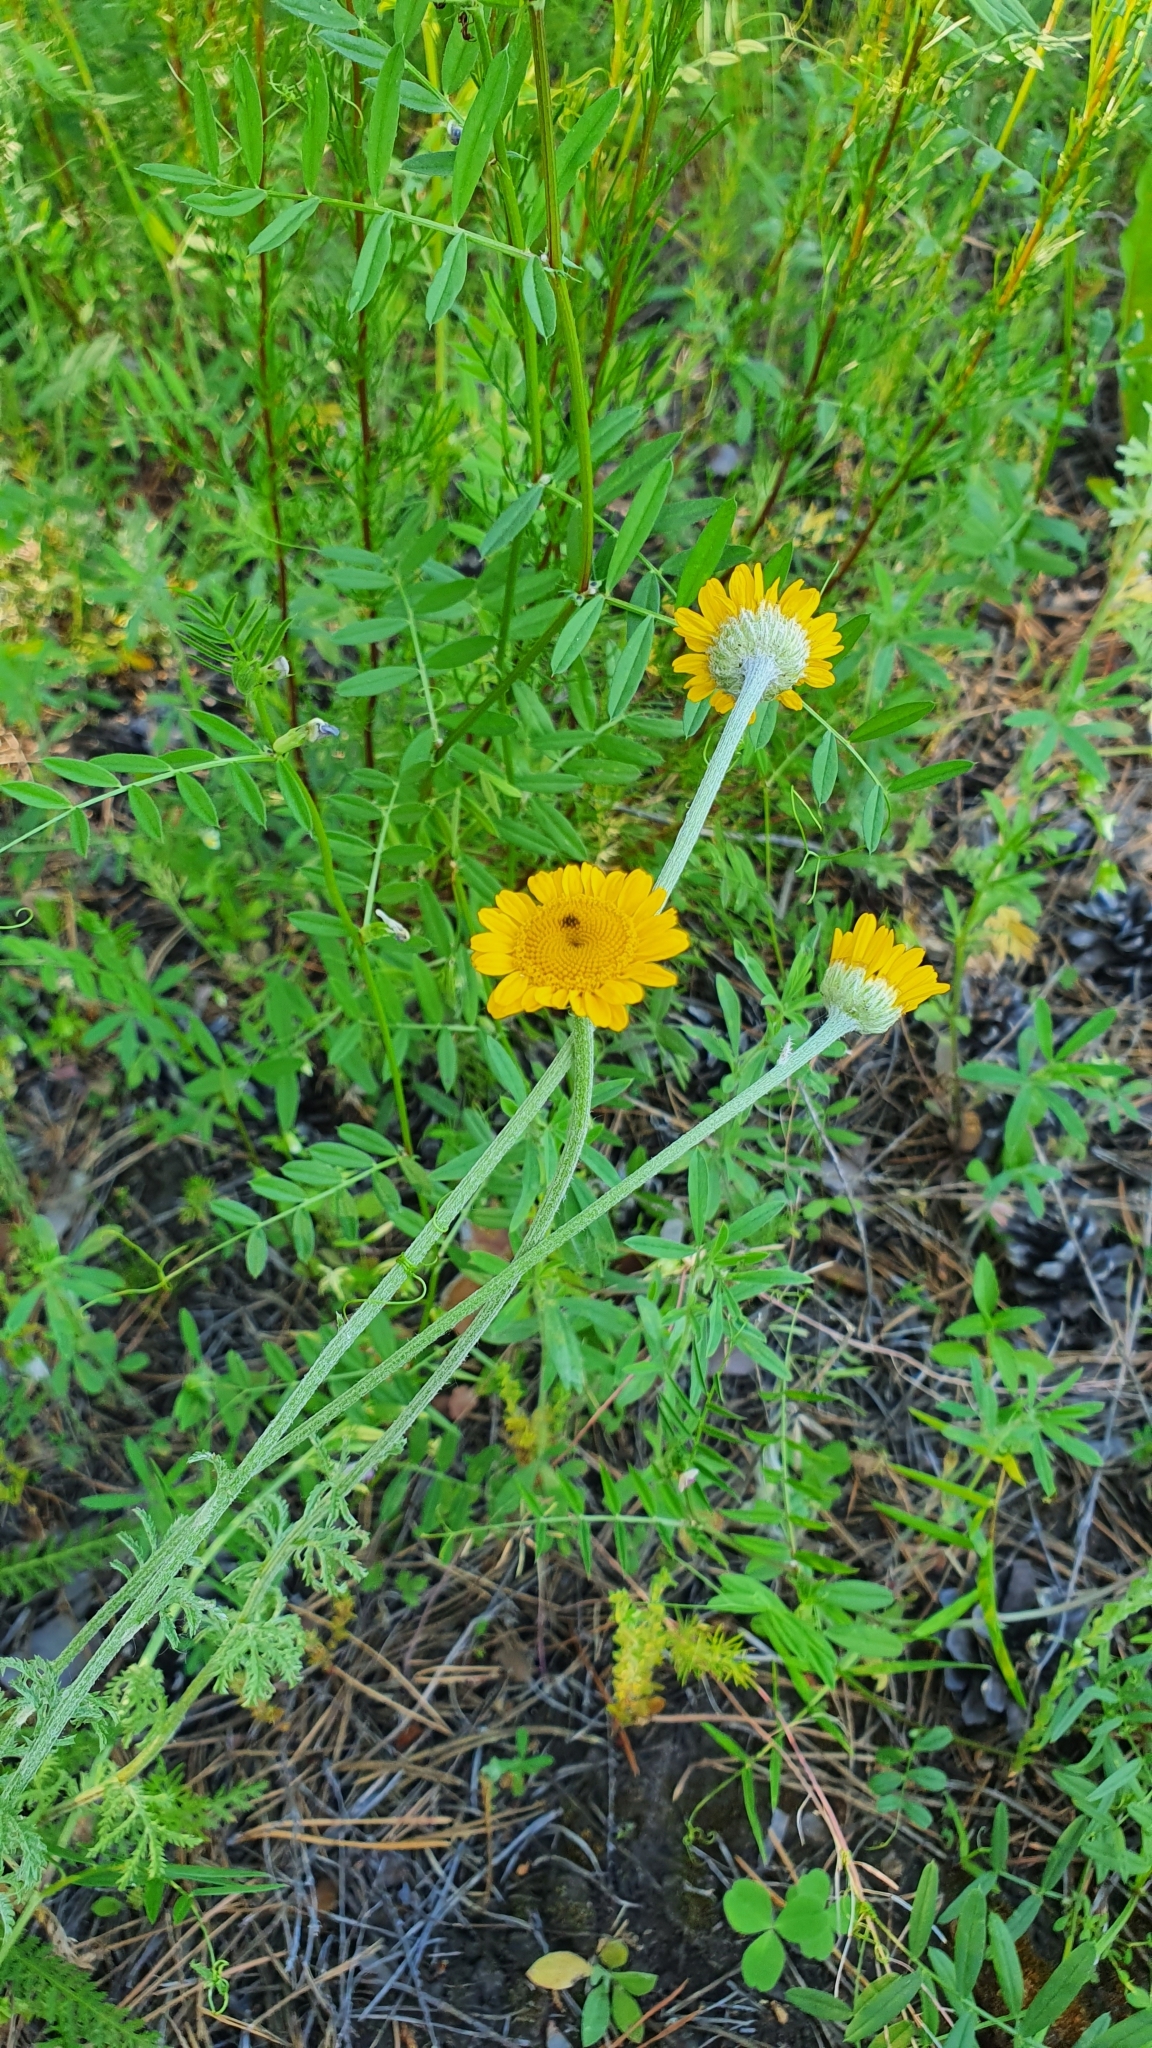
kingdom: Plantae
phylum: Tracheophyta
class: Magnoliopsida
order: Asterales
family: Asteraceae
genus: Cota
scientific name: Cota tinctoria
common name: Golden chamomile
